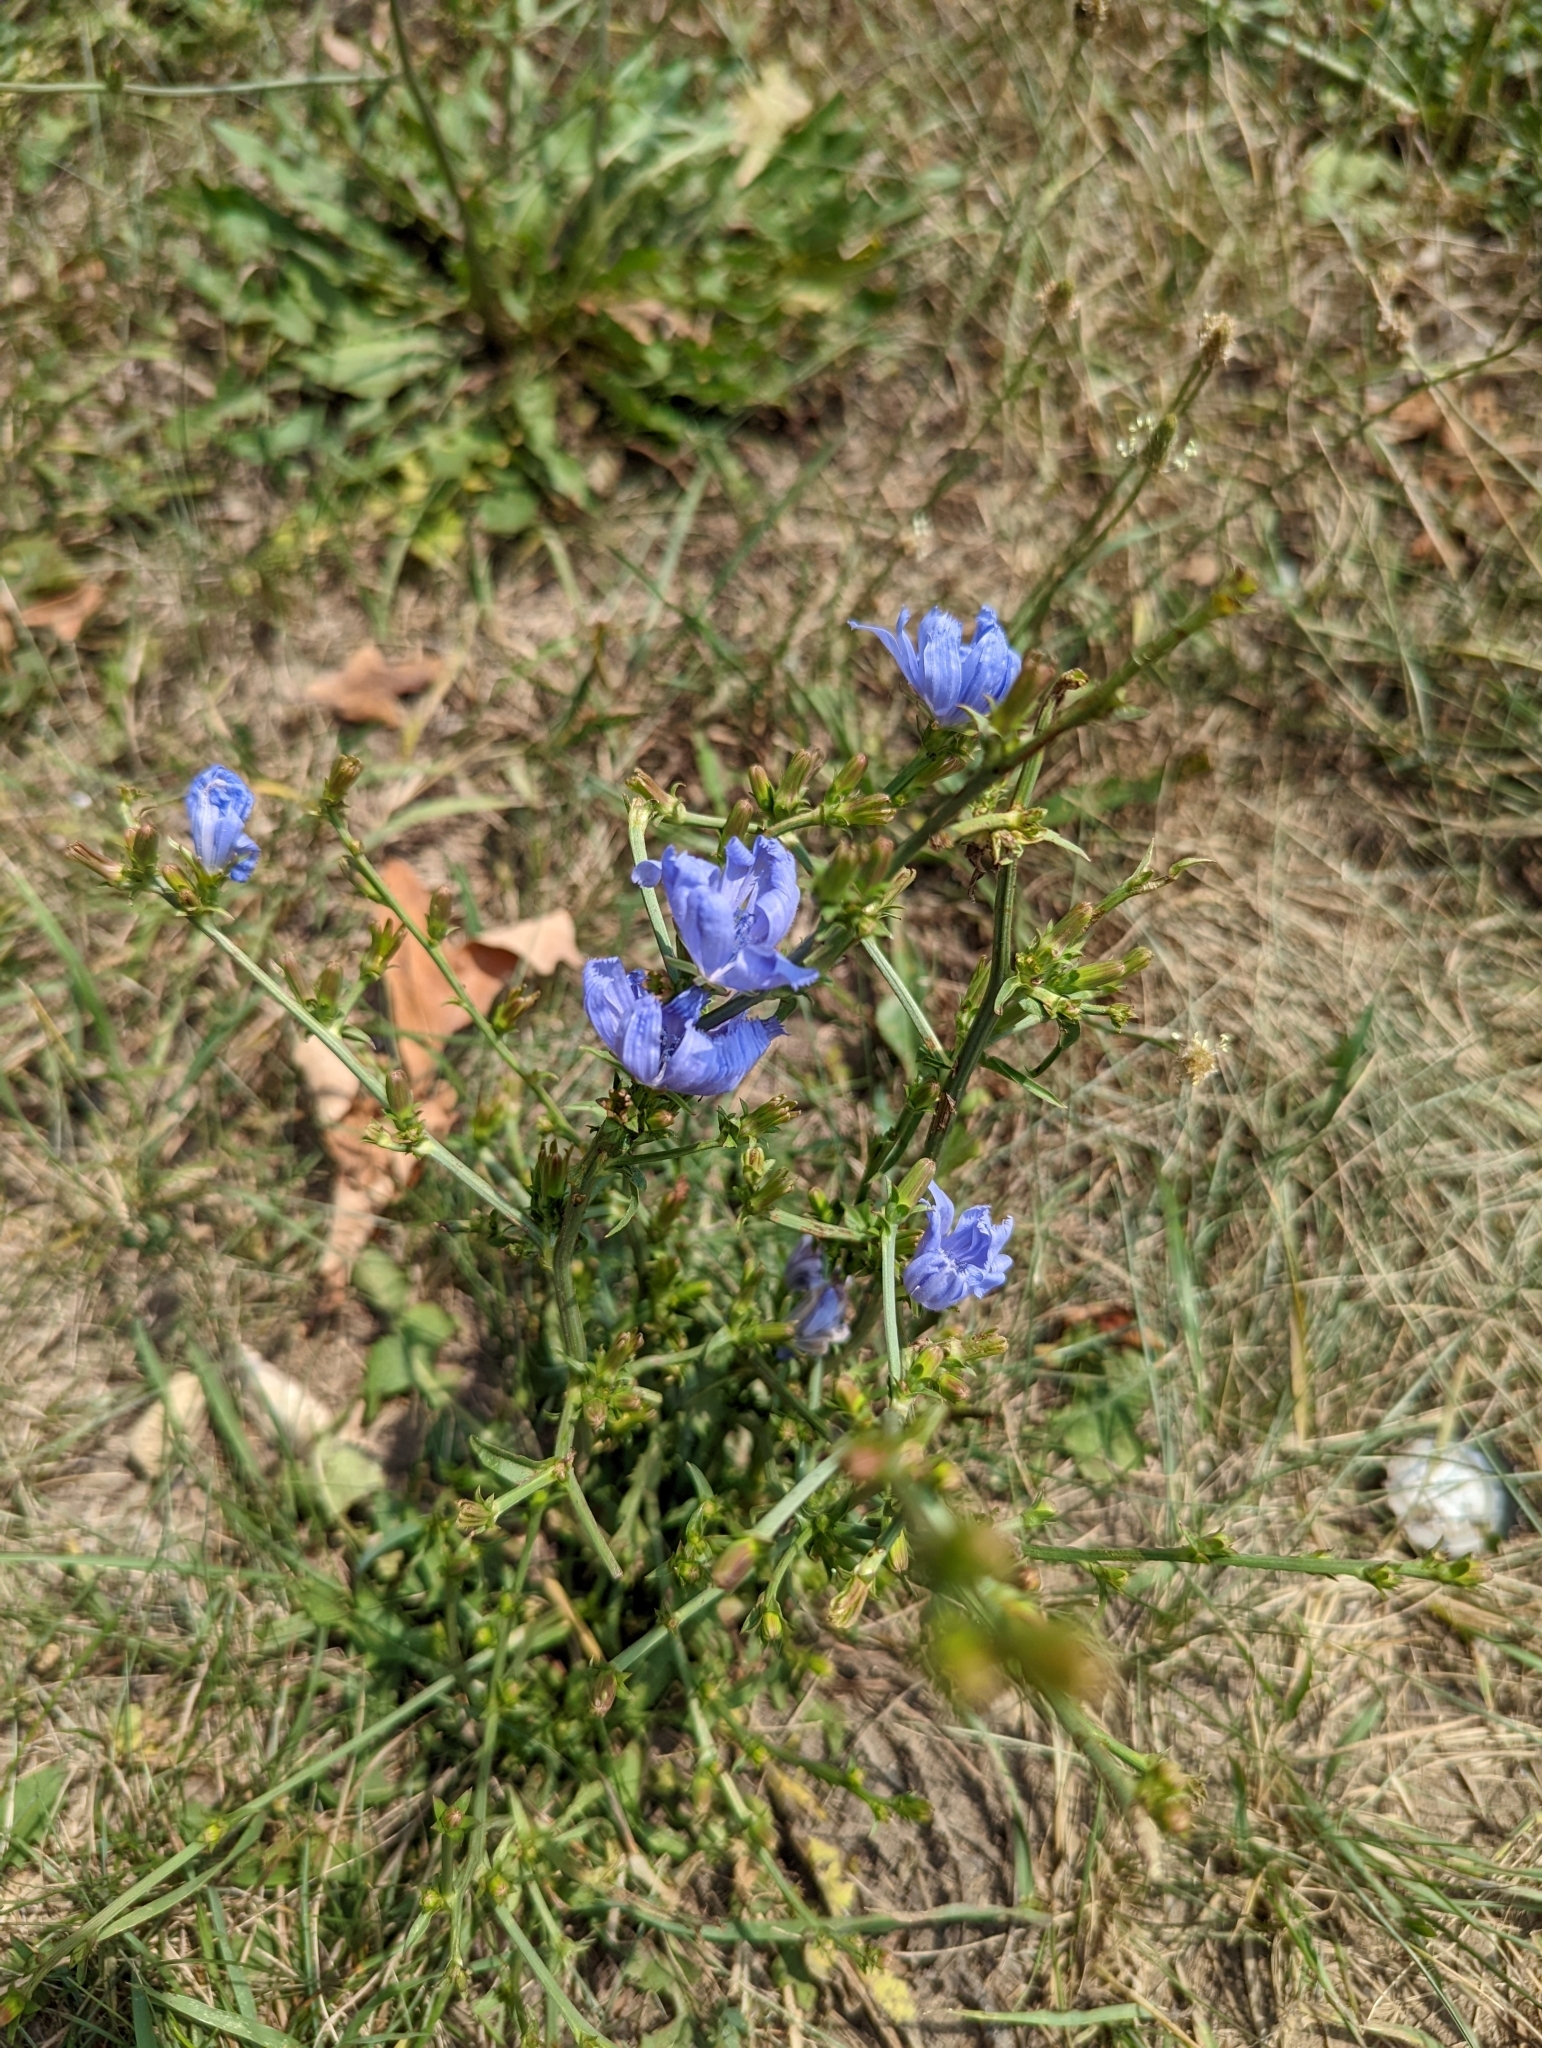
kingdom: Plantae
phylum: Tracheophyta
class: Magnoliopsida
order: Asterales
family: Asteraceae
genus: Cichorium
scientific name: Cichorium intybus
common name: Chicory
